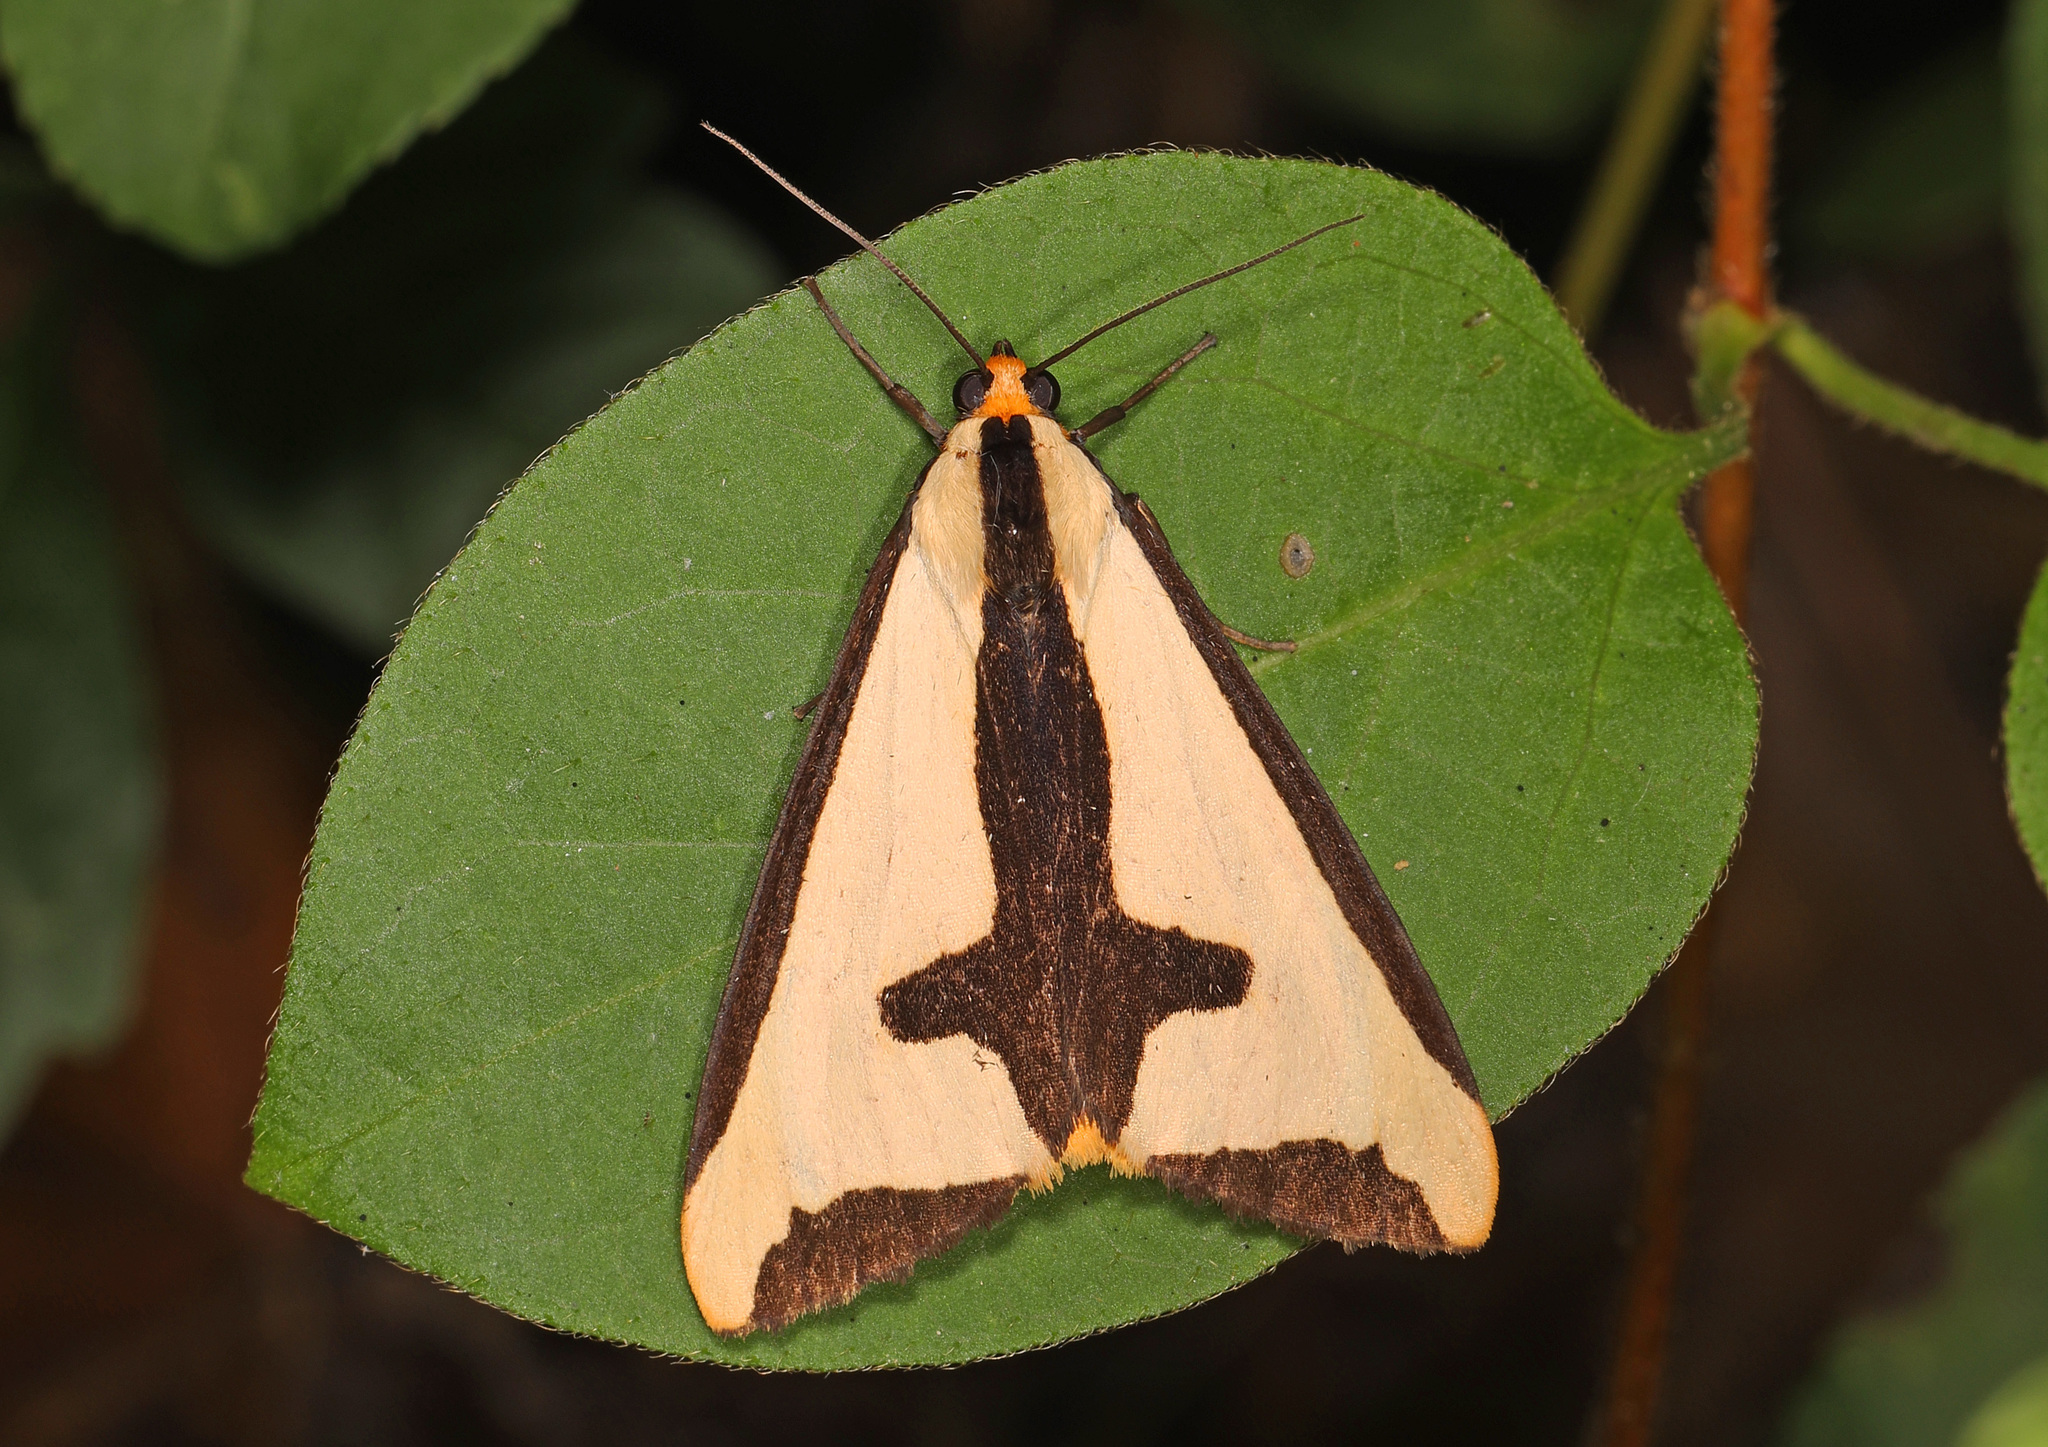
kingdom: Animalia
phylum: Arthropoda
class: Insecta
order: Lepidoptera
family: Erebidae
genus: Haploa
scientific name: Haploa clymene
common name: Clymene moth
